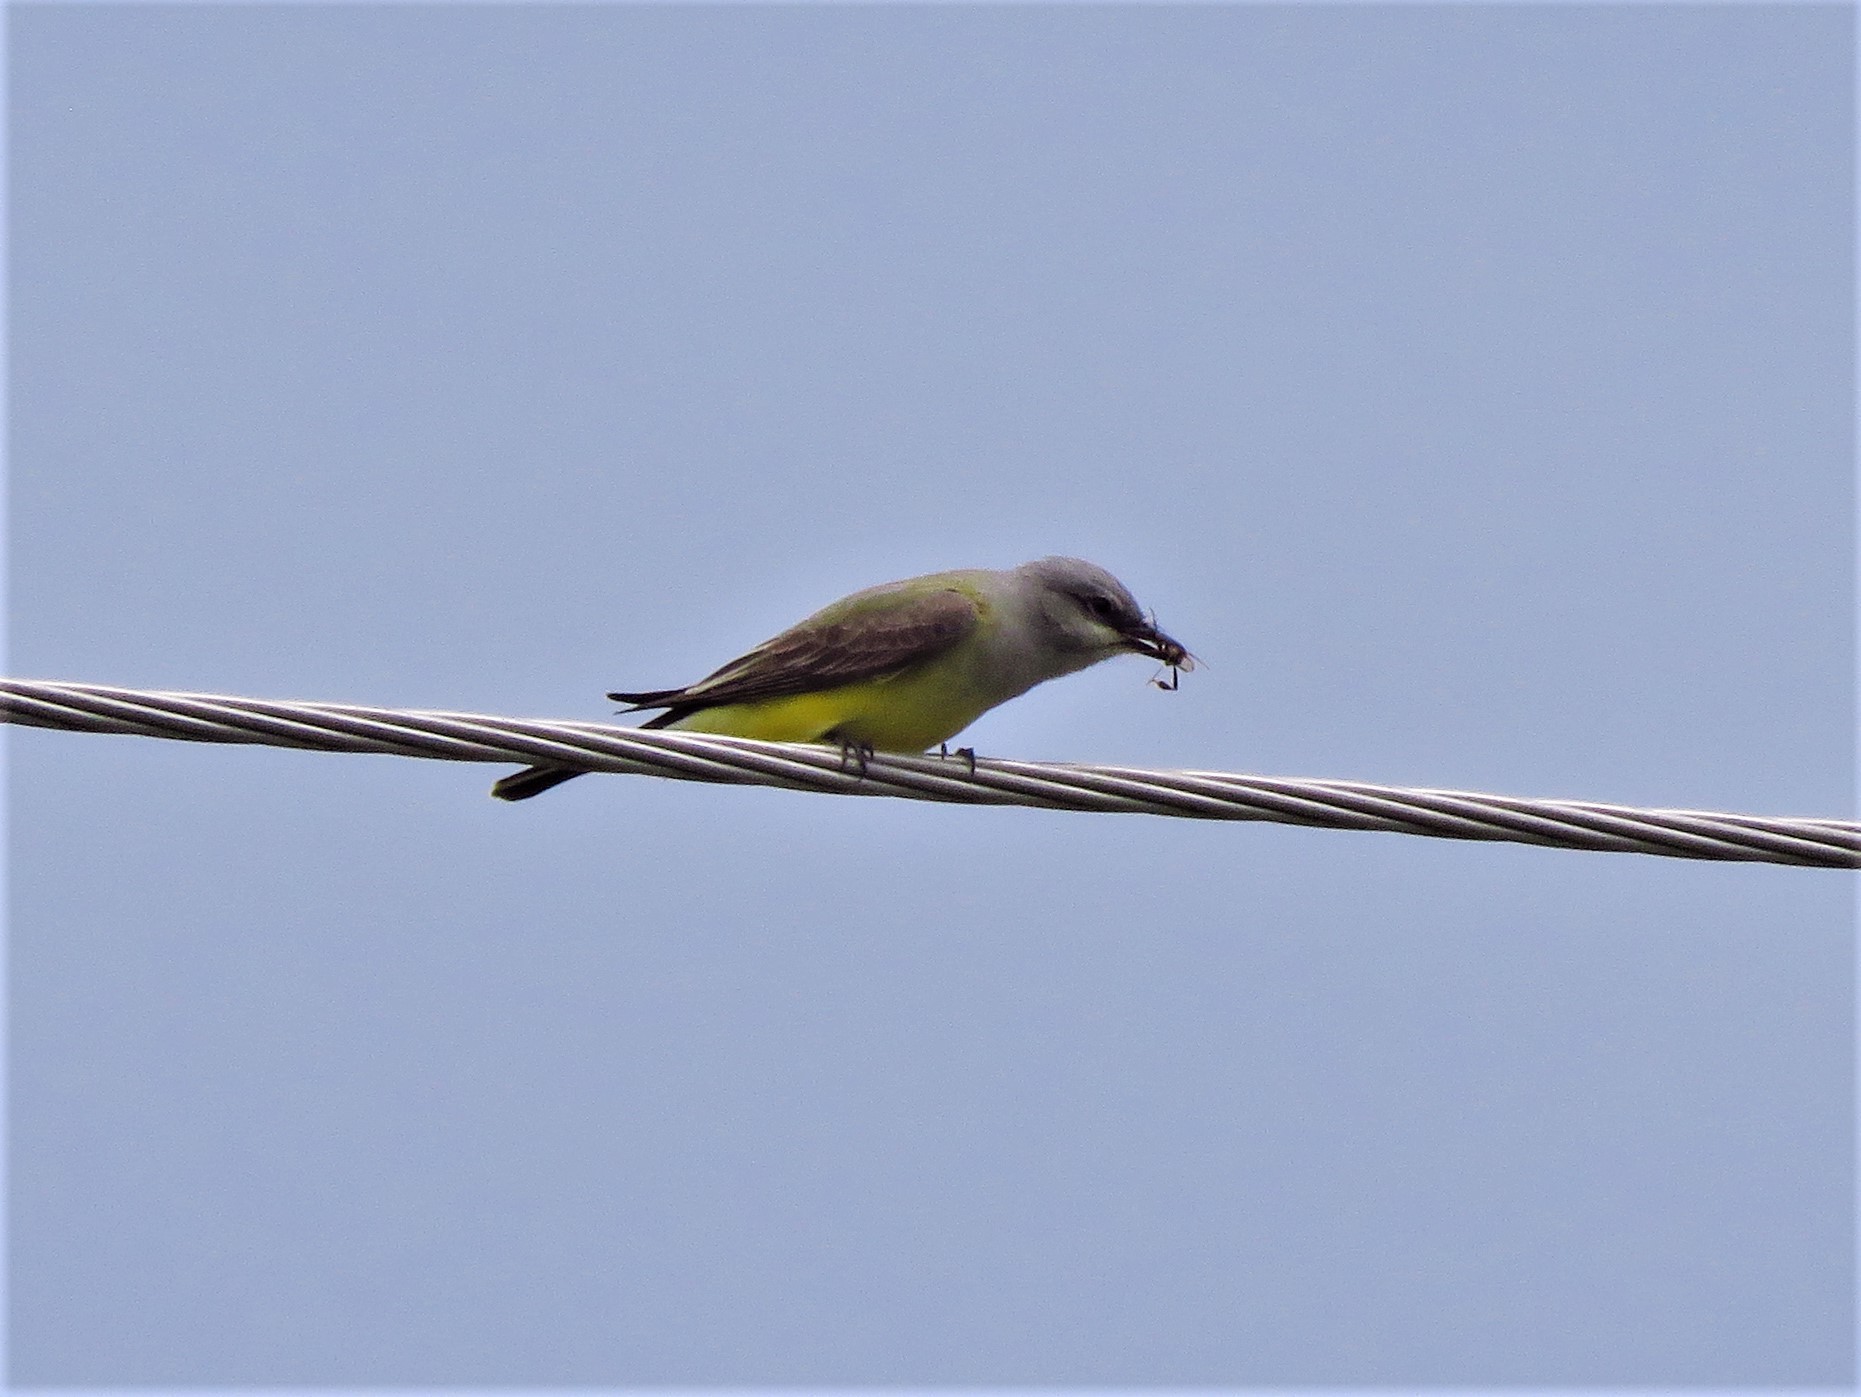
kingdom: Animalia
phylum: Chordata
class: Aves
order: Passeriformes
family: Tyrannidae
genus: Tyrannus
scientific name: Tyrannus verticalis
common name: Western kingbird
